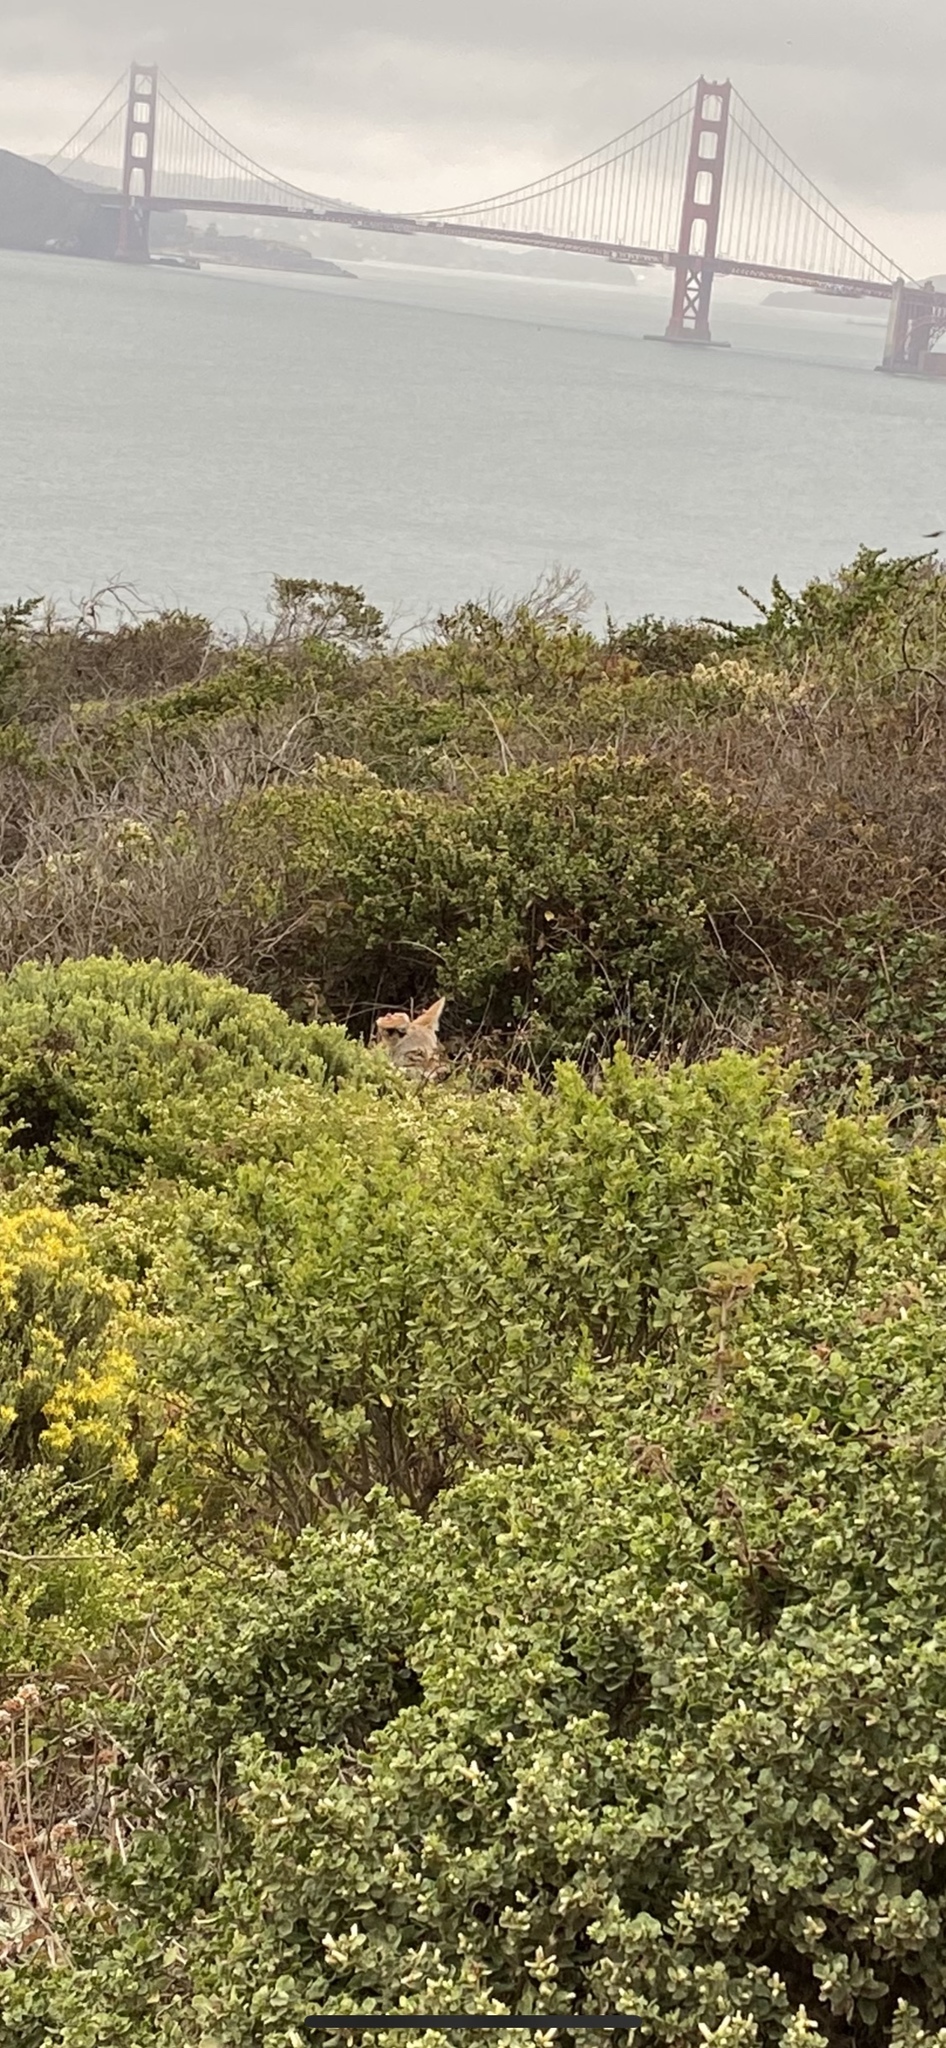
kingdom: Animalia
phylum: Chordata
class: Mammalia
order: Carnivora
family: Canidae
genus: Canis
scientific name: Canis latrans
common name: Coyote
